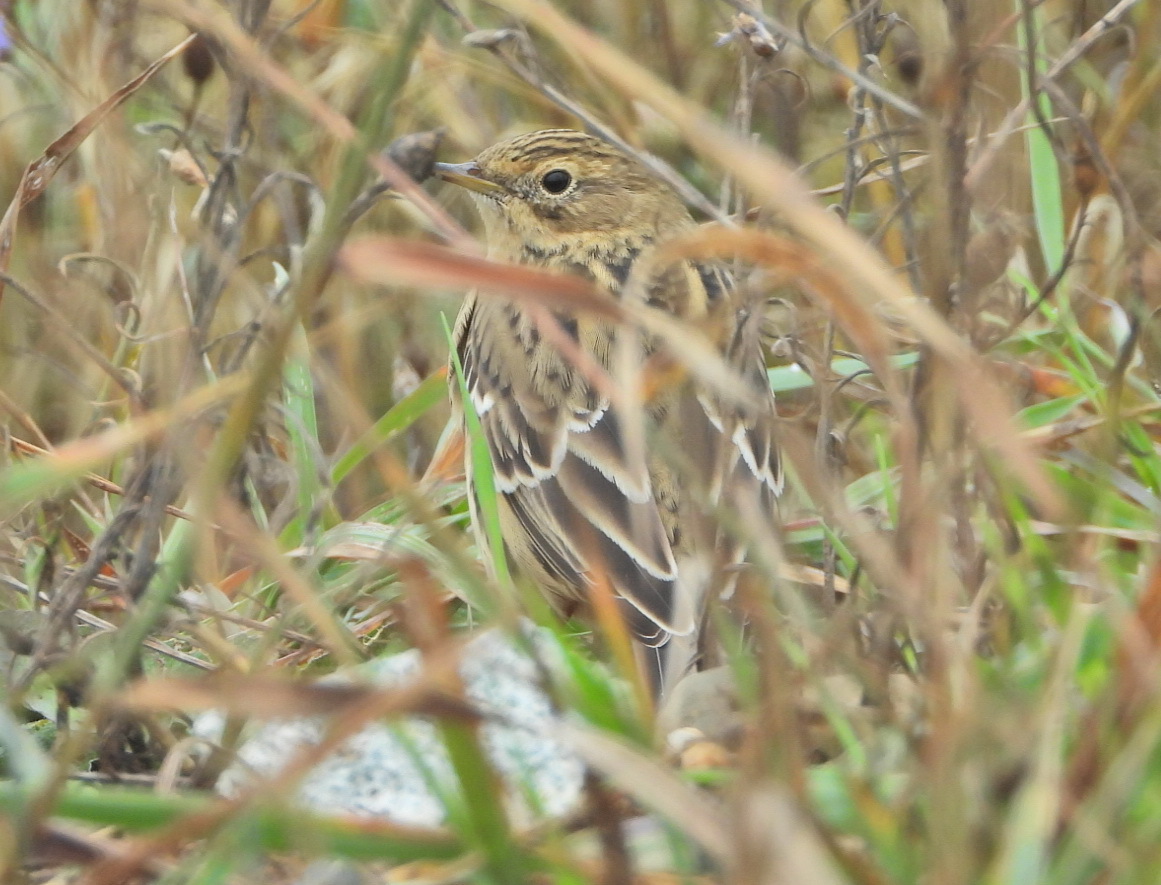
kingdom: Animalia
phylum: Chordata
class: Aves
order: Passeriformes
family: Motacillidae
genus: Anthus
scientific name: Anthus trivialis
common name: Tree pipit
